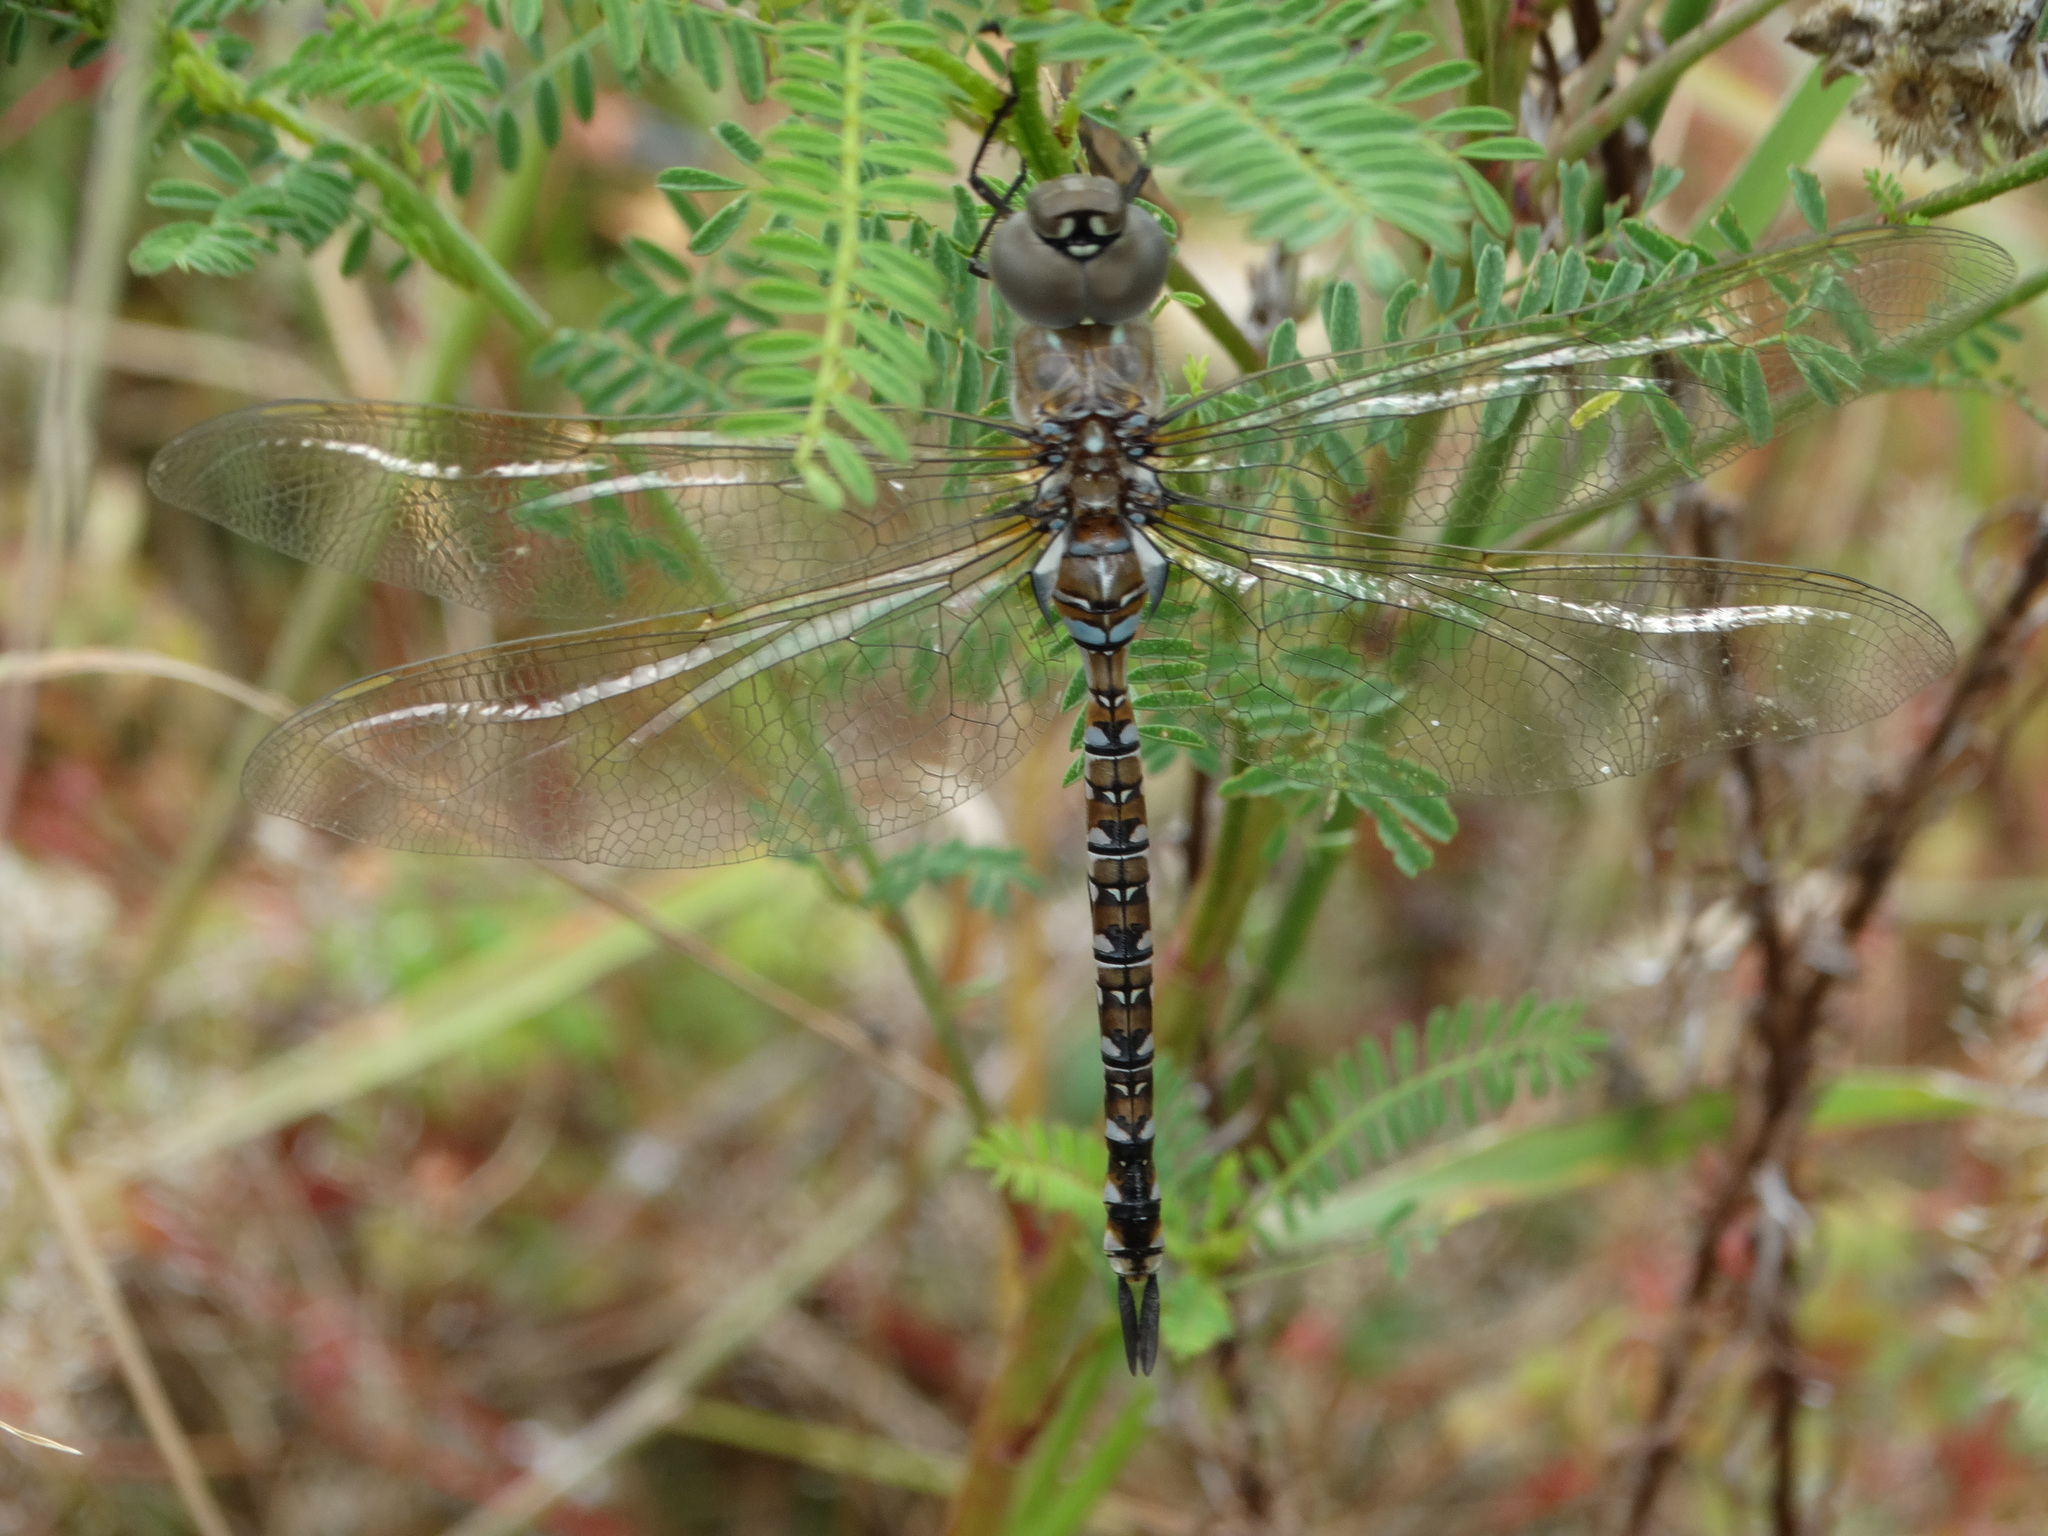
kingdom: Animalia
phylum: Arthropoda
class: Insecta
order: Odonata
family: Aeshnidae
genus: Rhionaeschna
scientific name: Rhionaeschna multicolor
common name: Blue-eyed darner
